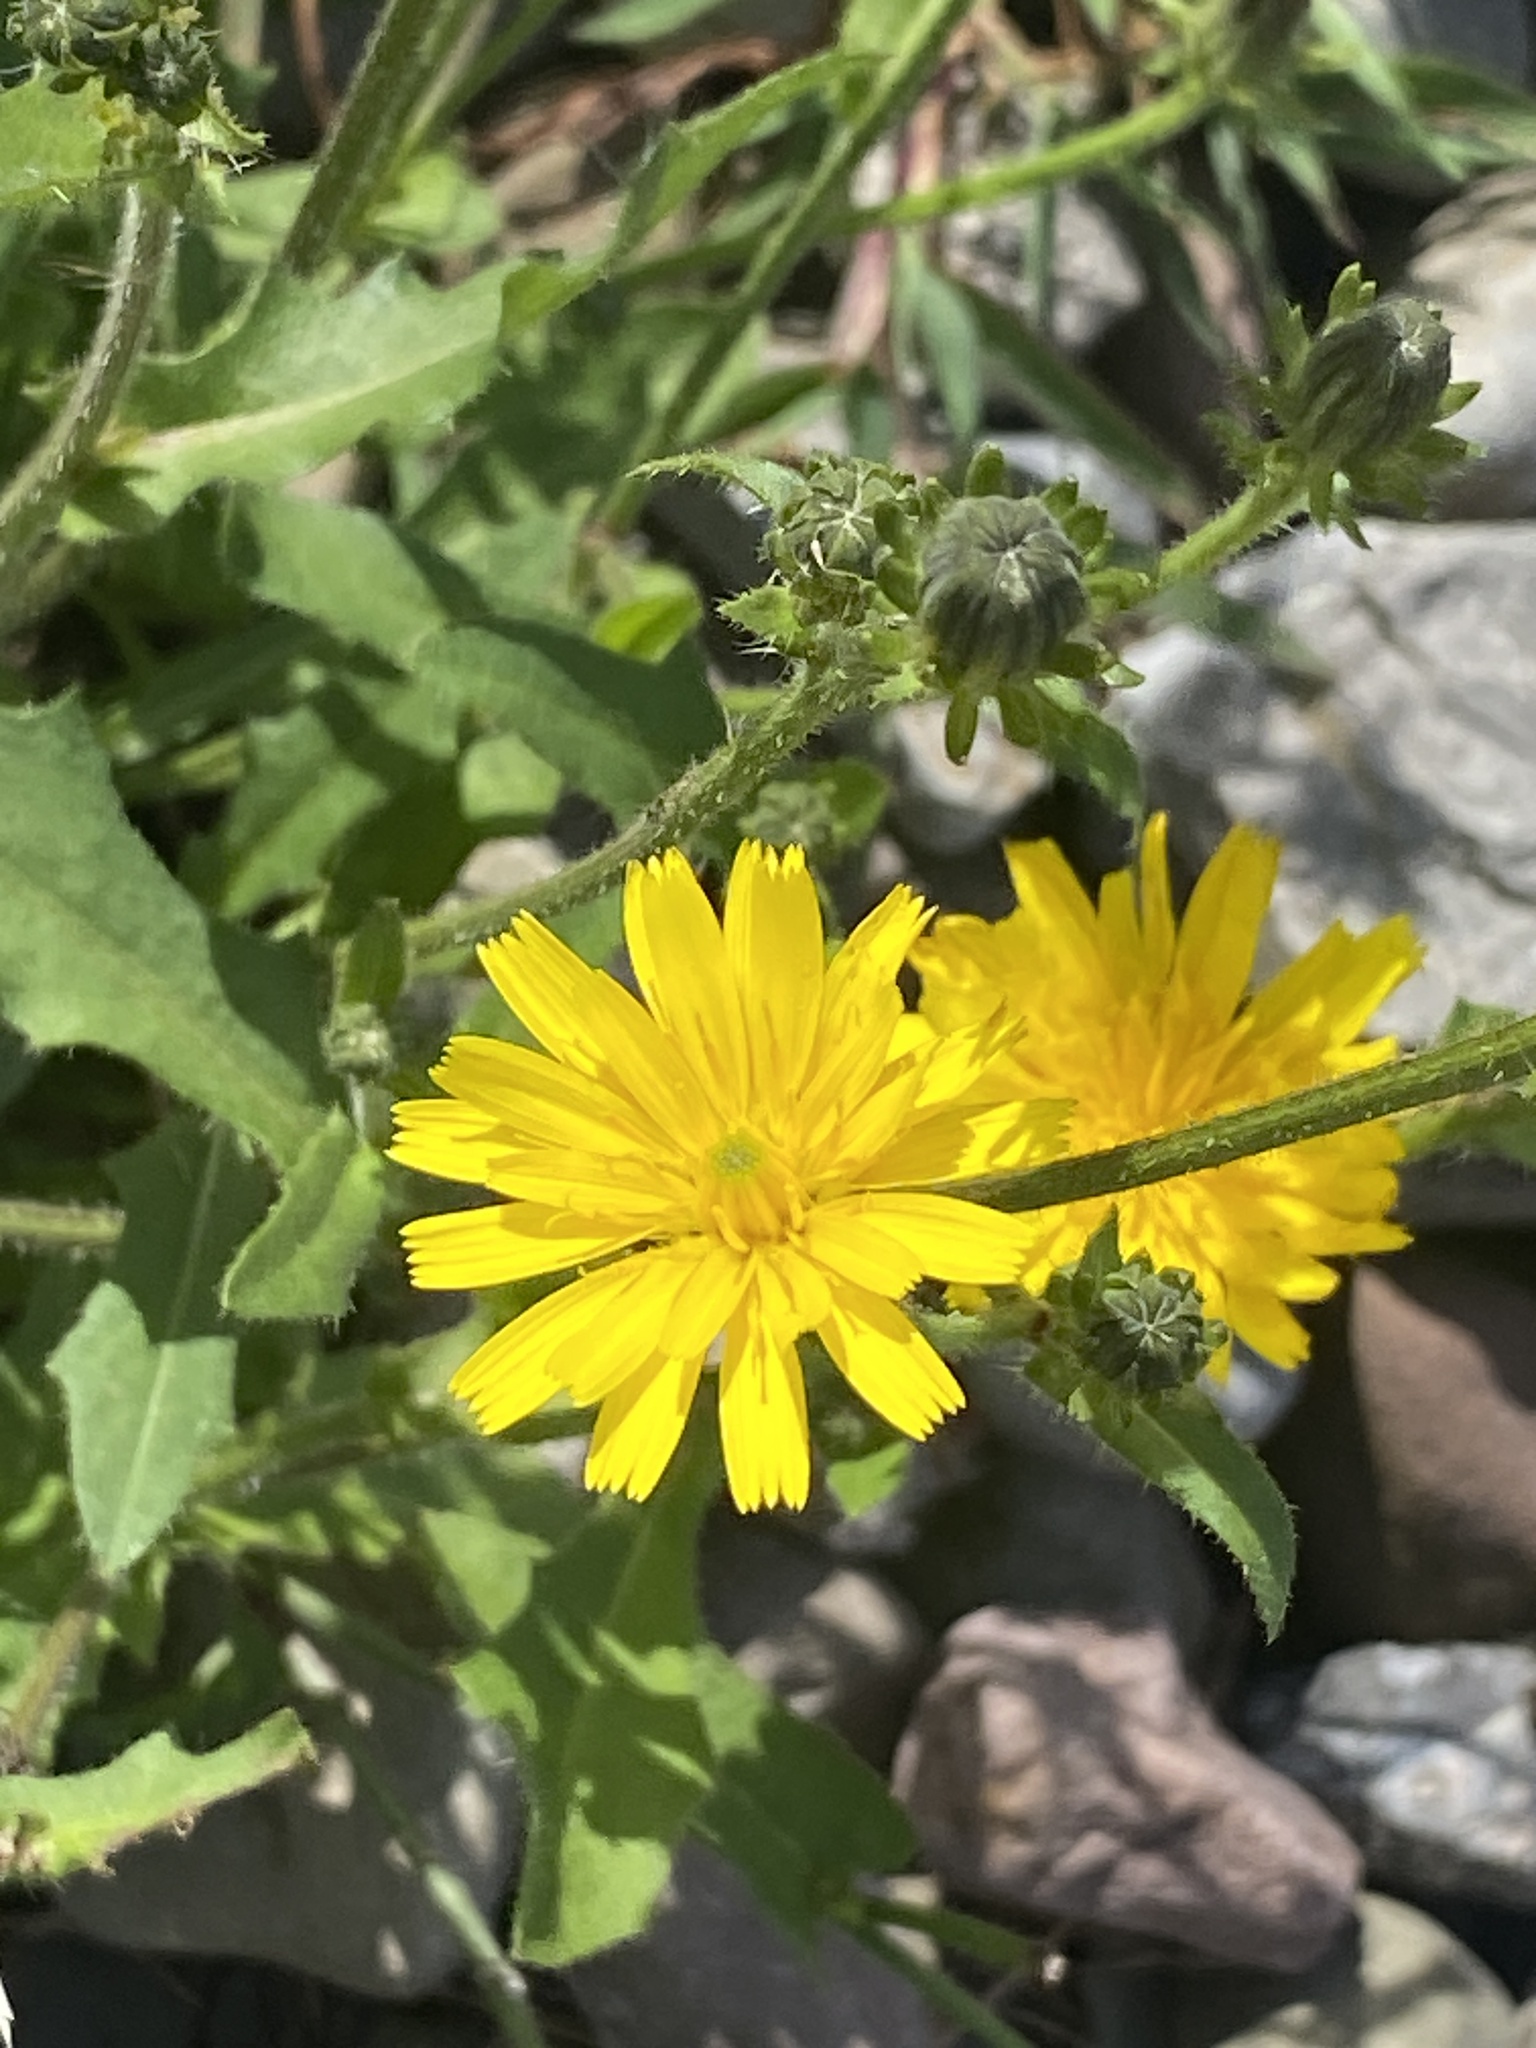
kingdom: Plantae
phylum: Tracheophyta
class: Magnoliopsida
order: Asterales
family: Asteraceae
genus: Picris
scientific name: Picris hieracioides
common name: Hawkweed oxtongue
